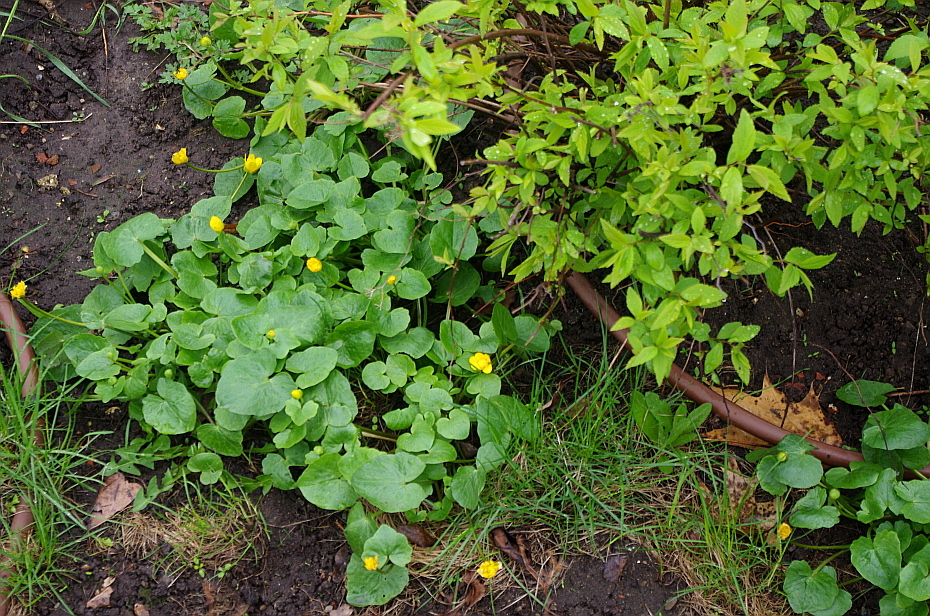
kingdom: Plantae
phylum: Tracheophyta
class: Magnoliopsida
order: Ranunculales
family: Ranunculaceae
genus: Ficaria
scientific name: Ficaria verna
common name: Lesser celandine
